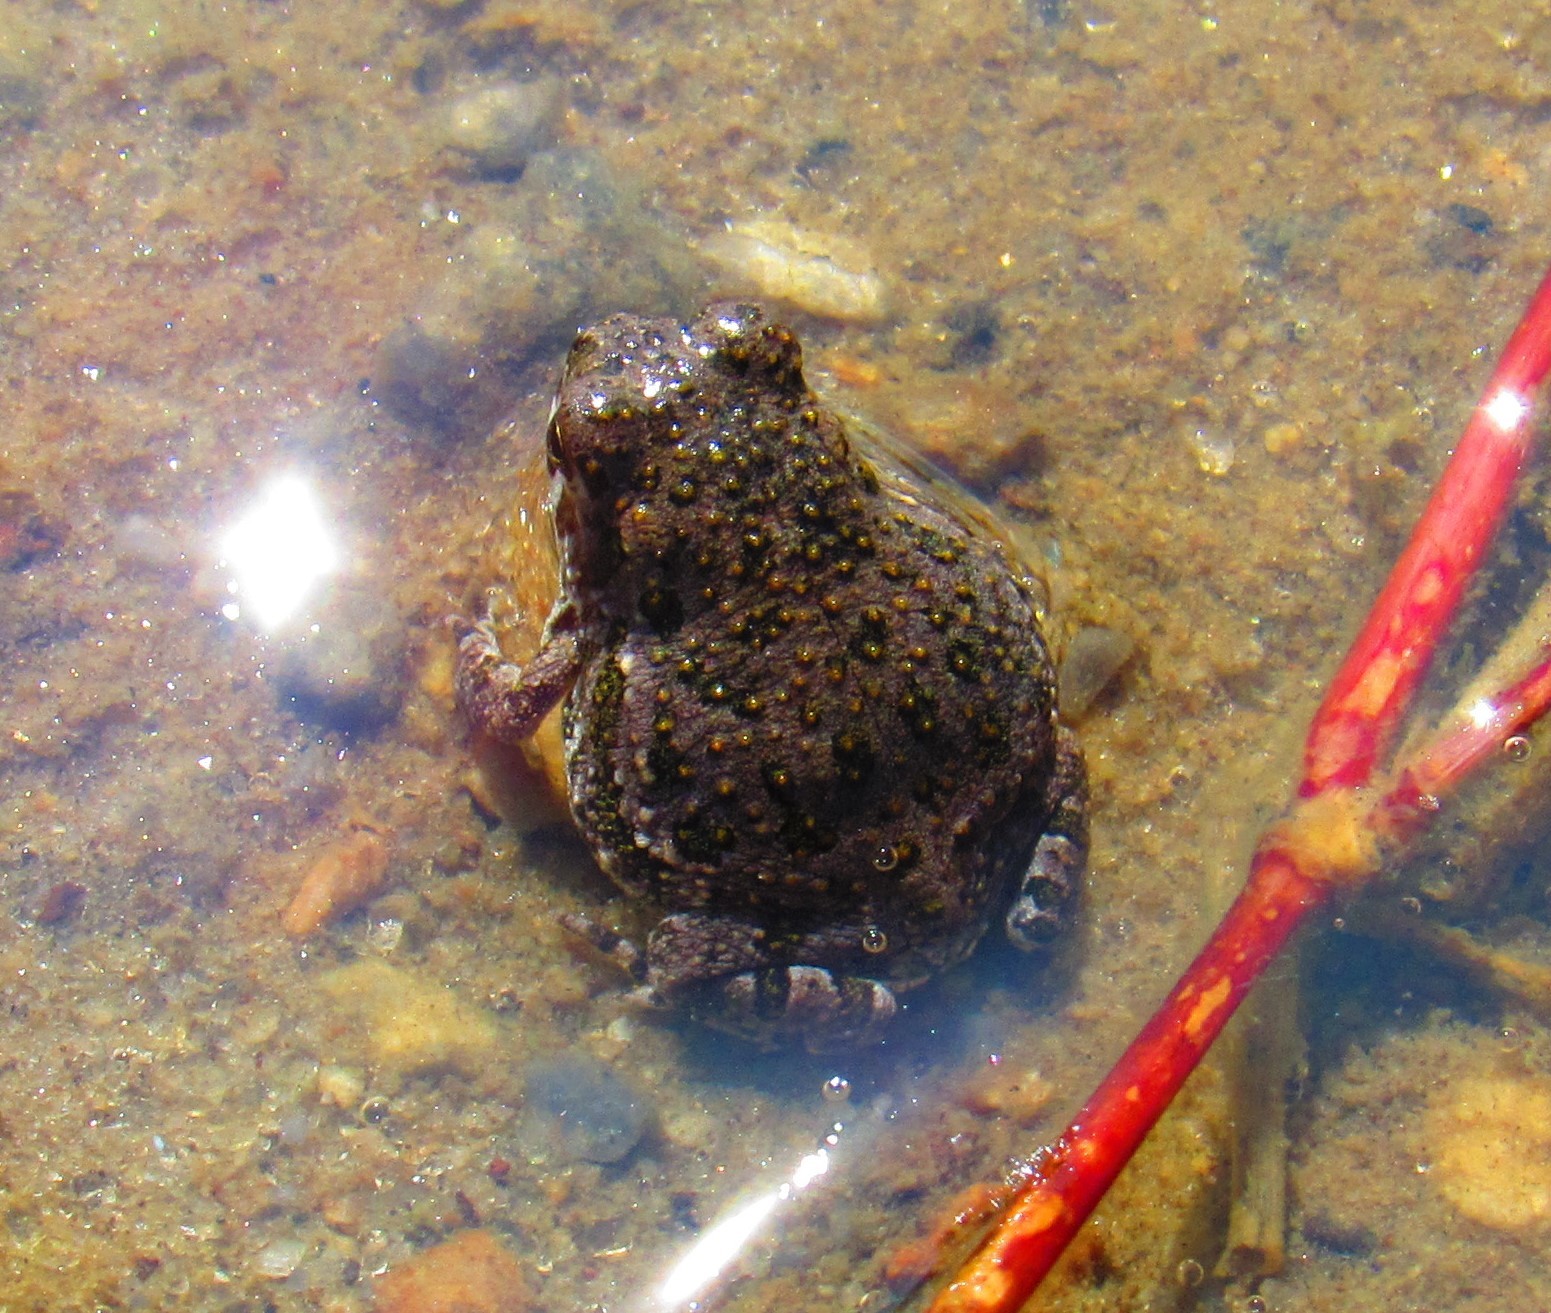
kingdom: Animalia
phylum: Chordata
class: Amphibia
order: Anura
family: Bufonidae
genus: Incilius
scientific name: Incilius occidentalis
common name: Pine toad
